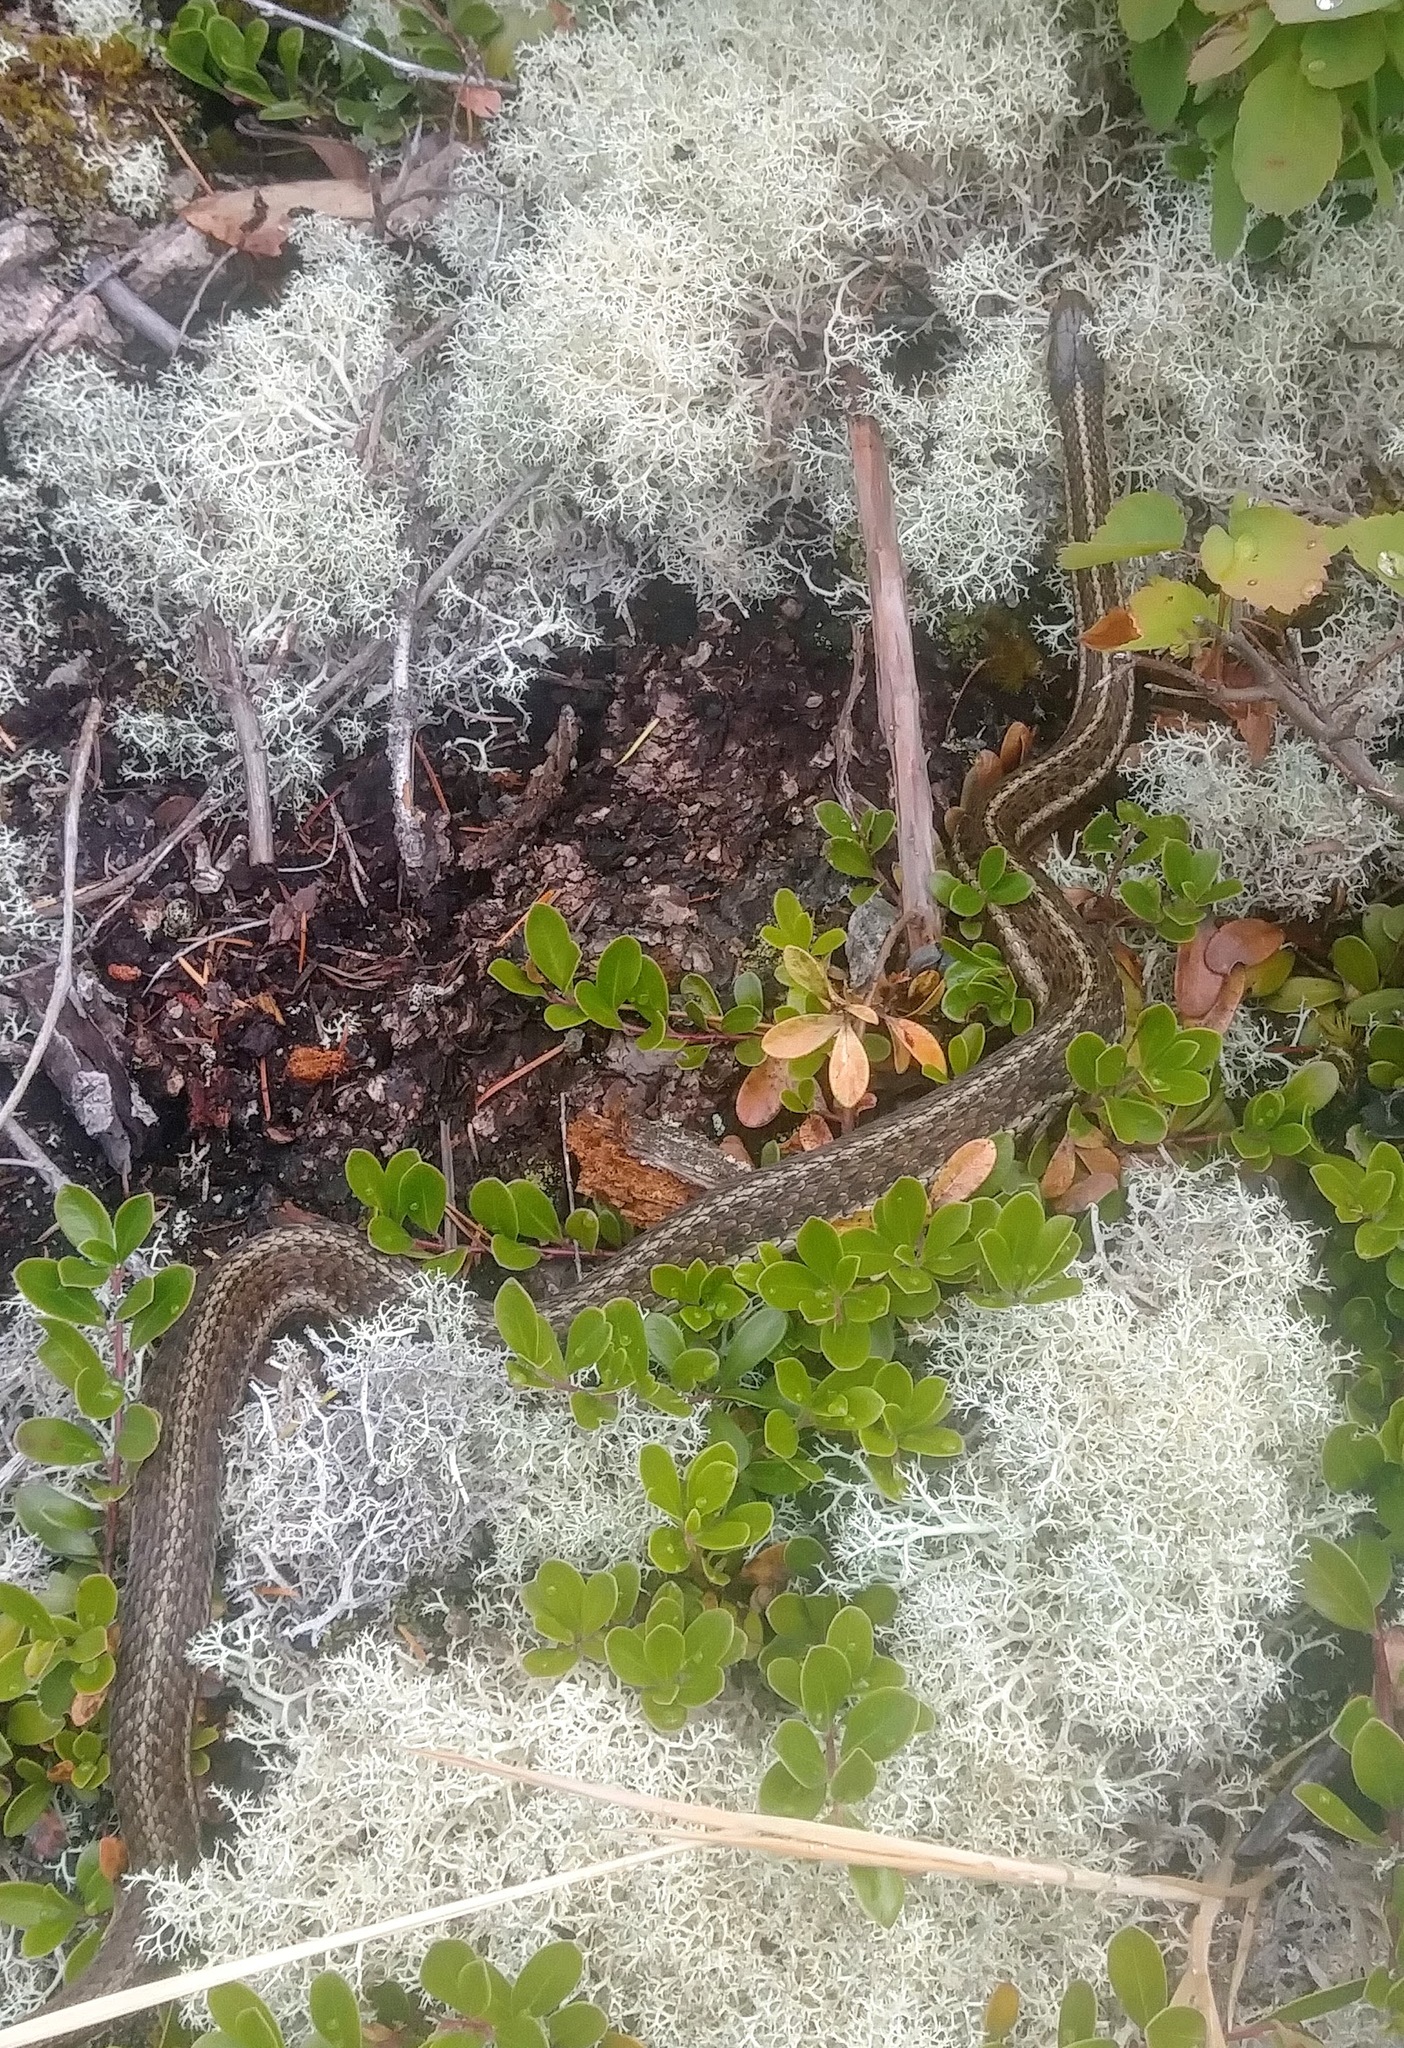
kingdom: Animalia
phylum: Chordata
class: Squamata
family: Colubridae
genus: Thamnophis
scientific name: Thamnophis ordinoides
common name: Northwestern garter snake
